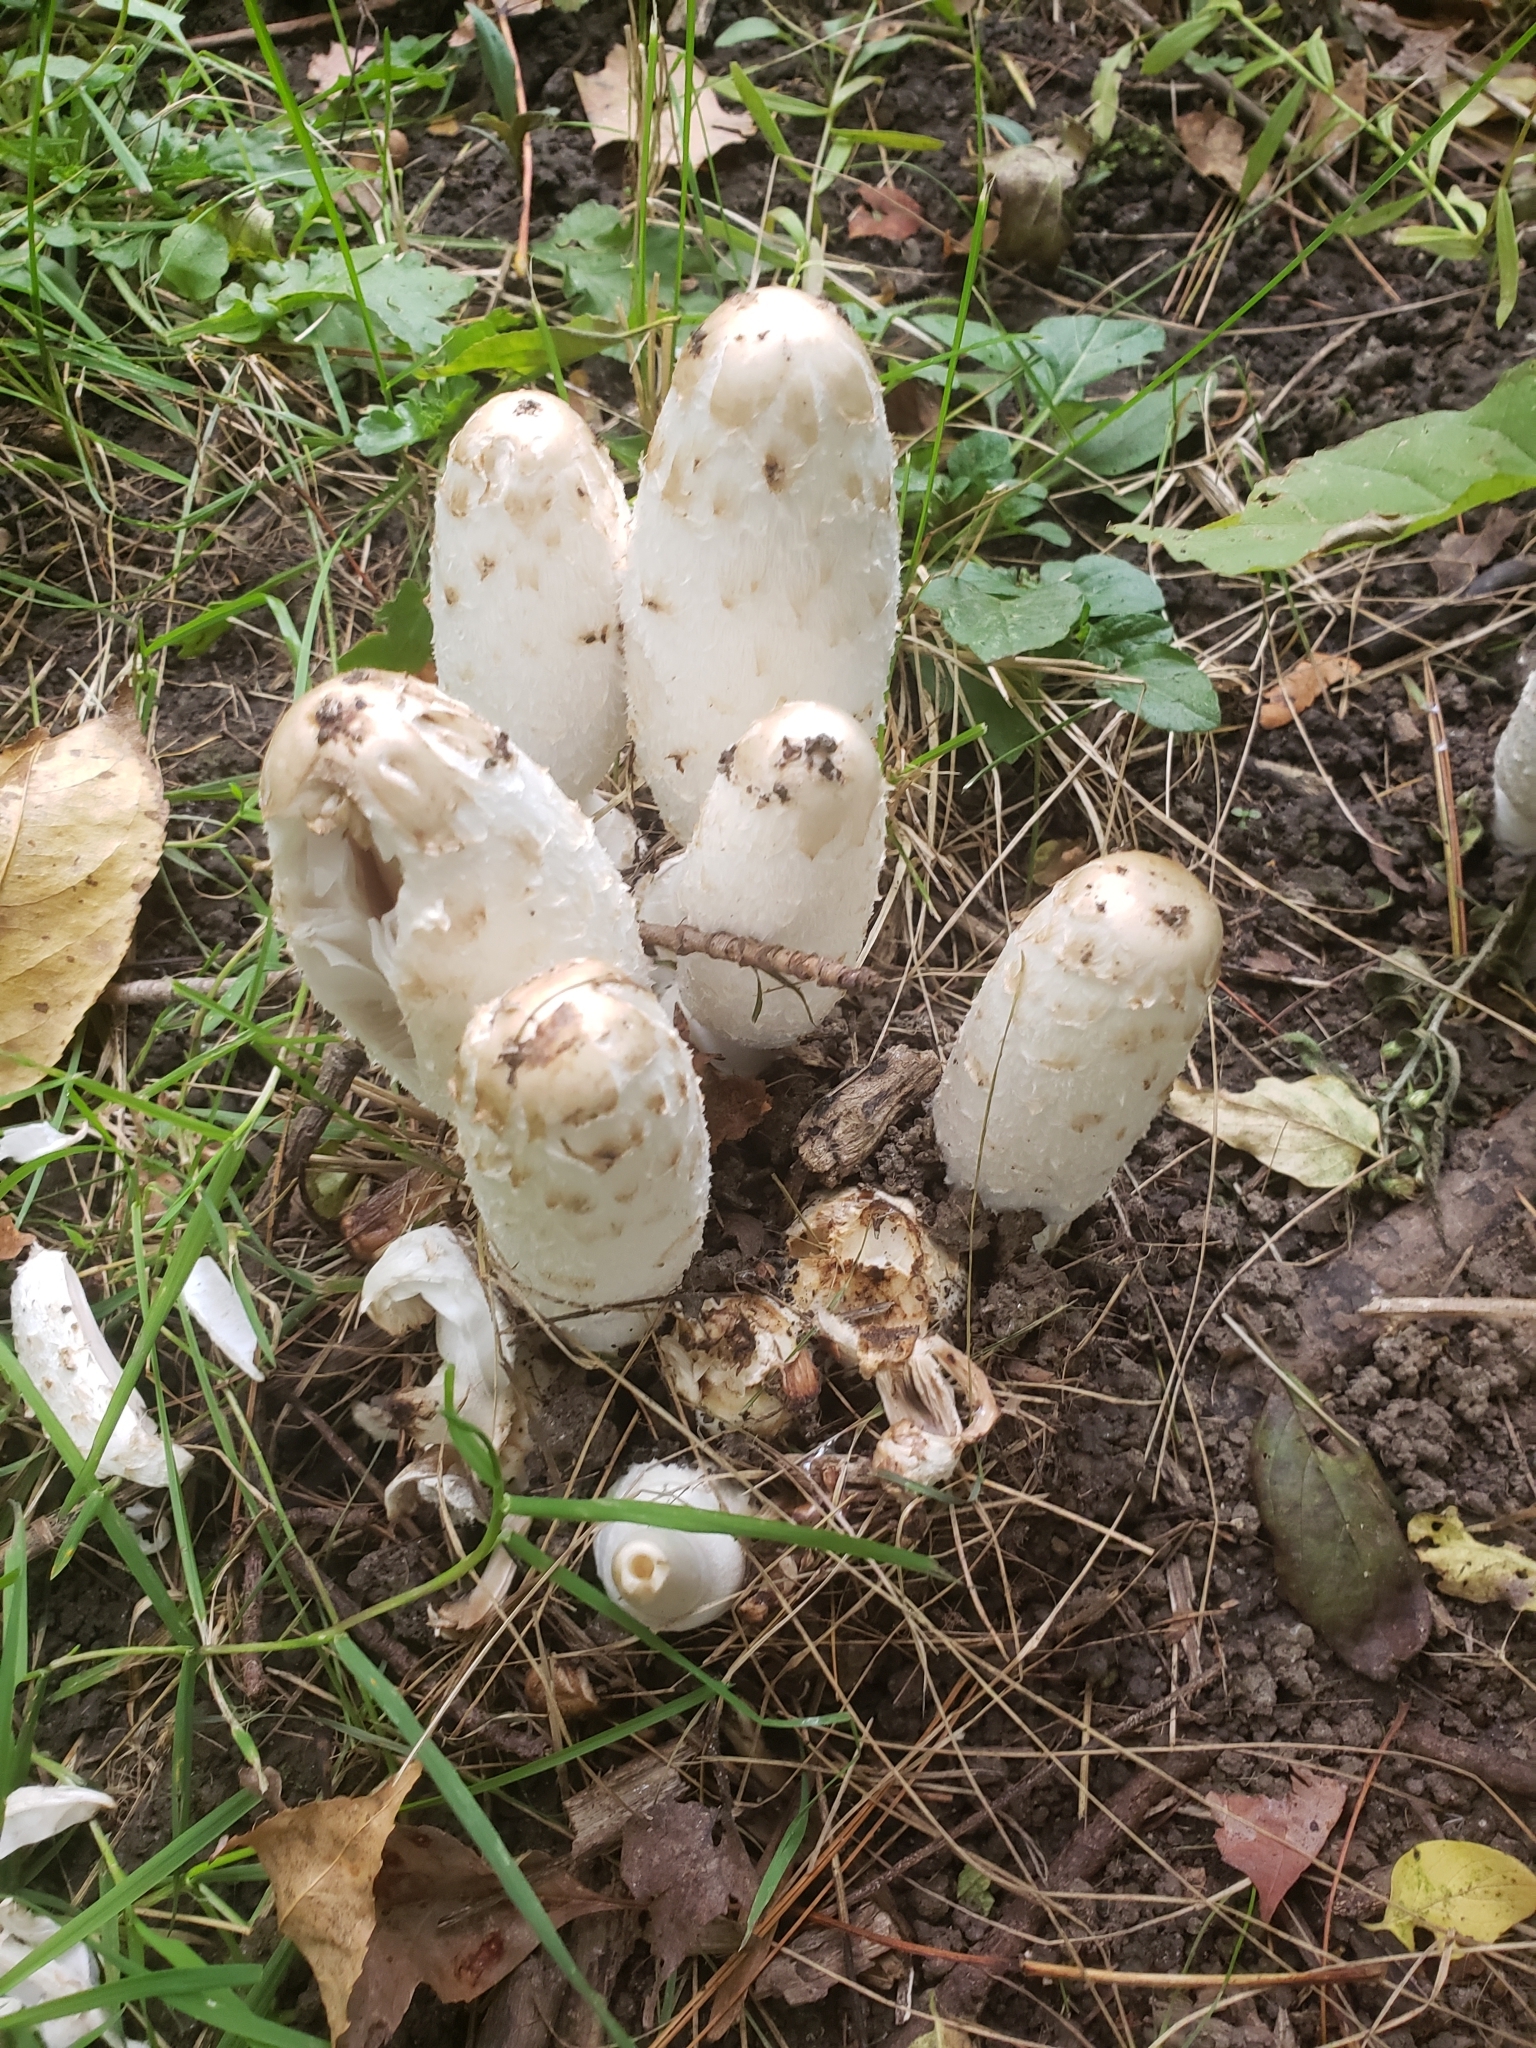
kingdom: Fungi
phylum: Basidiomycota
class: Agaricomycetes
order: Agaricales
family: Agaricaceae
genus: Coprinus
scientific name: Coprinus comatus
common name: Lawyer's wig
